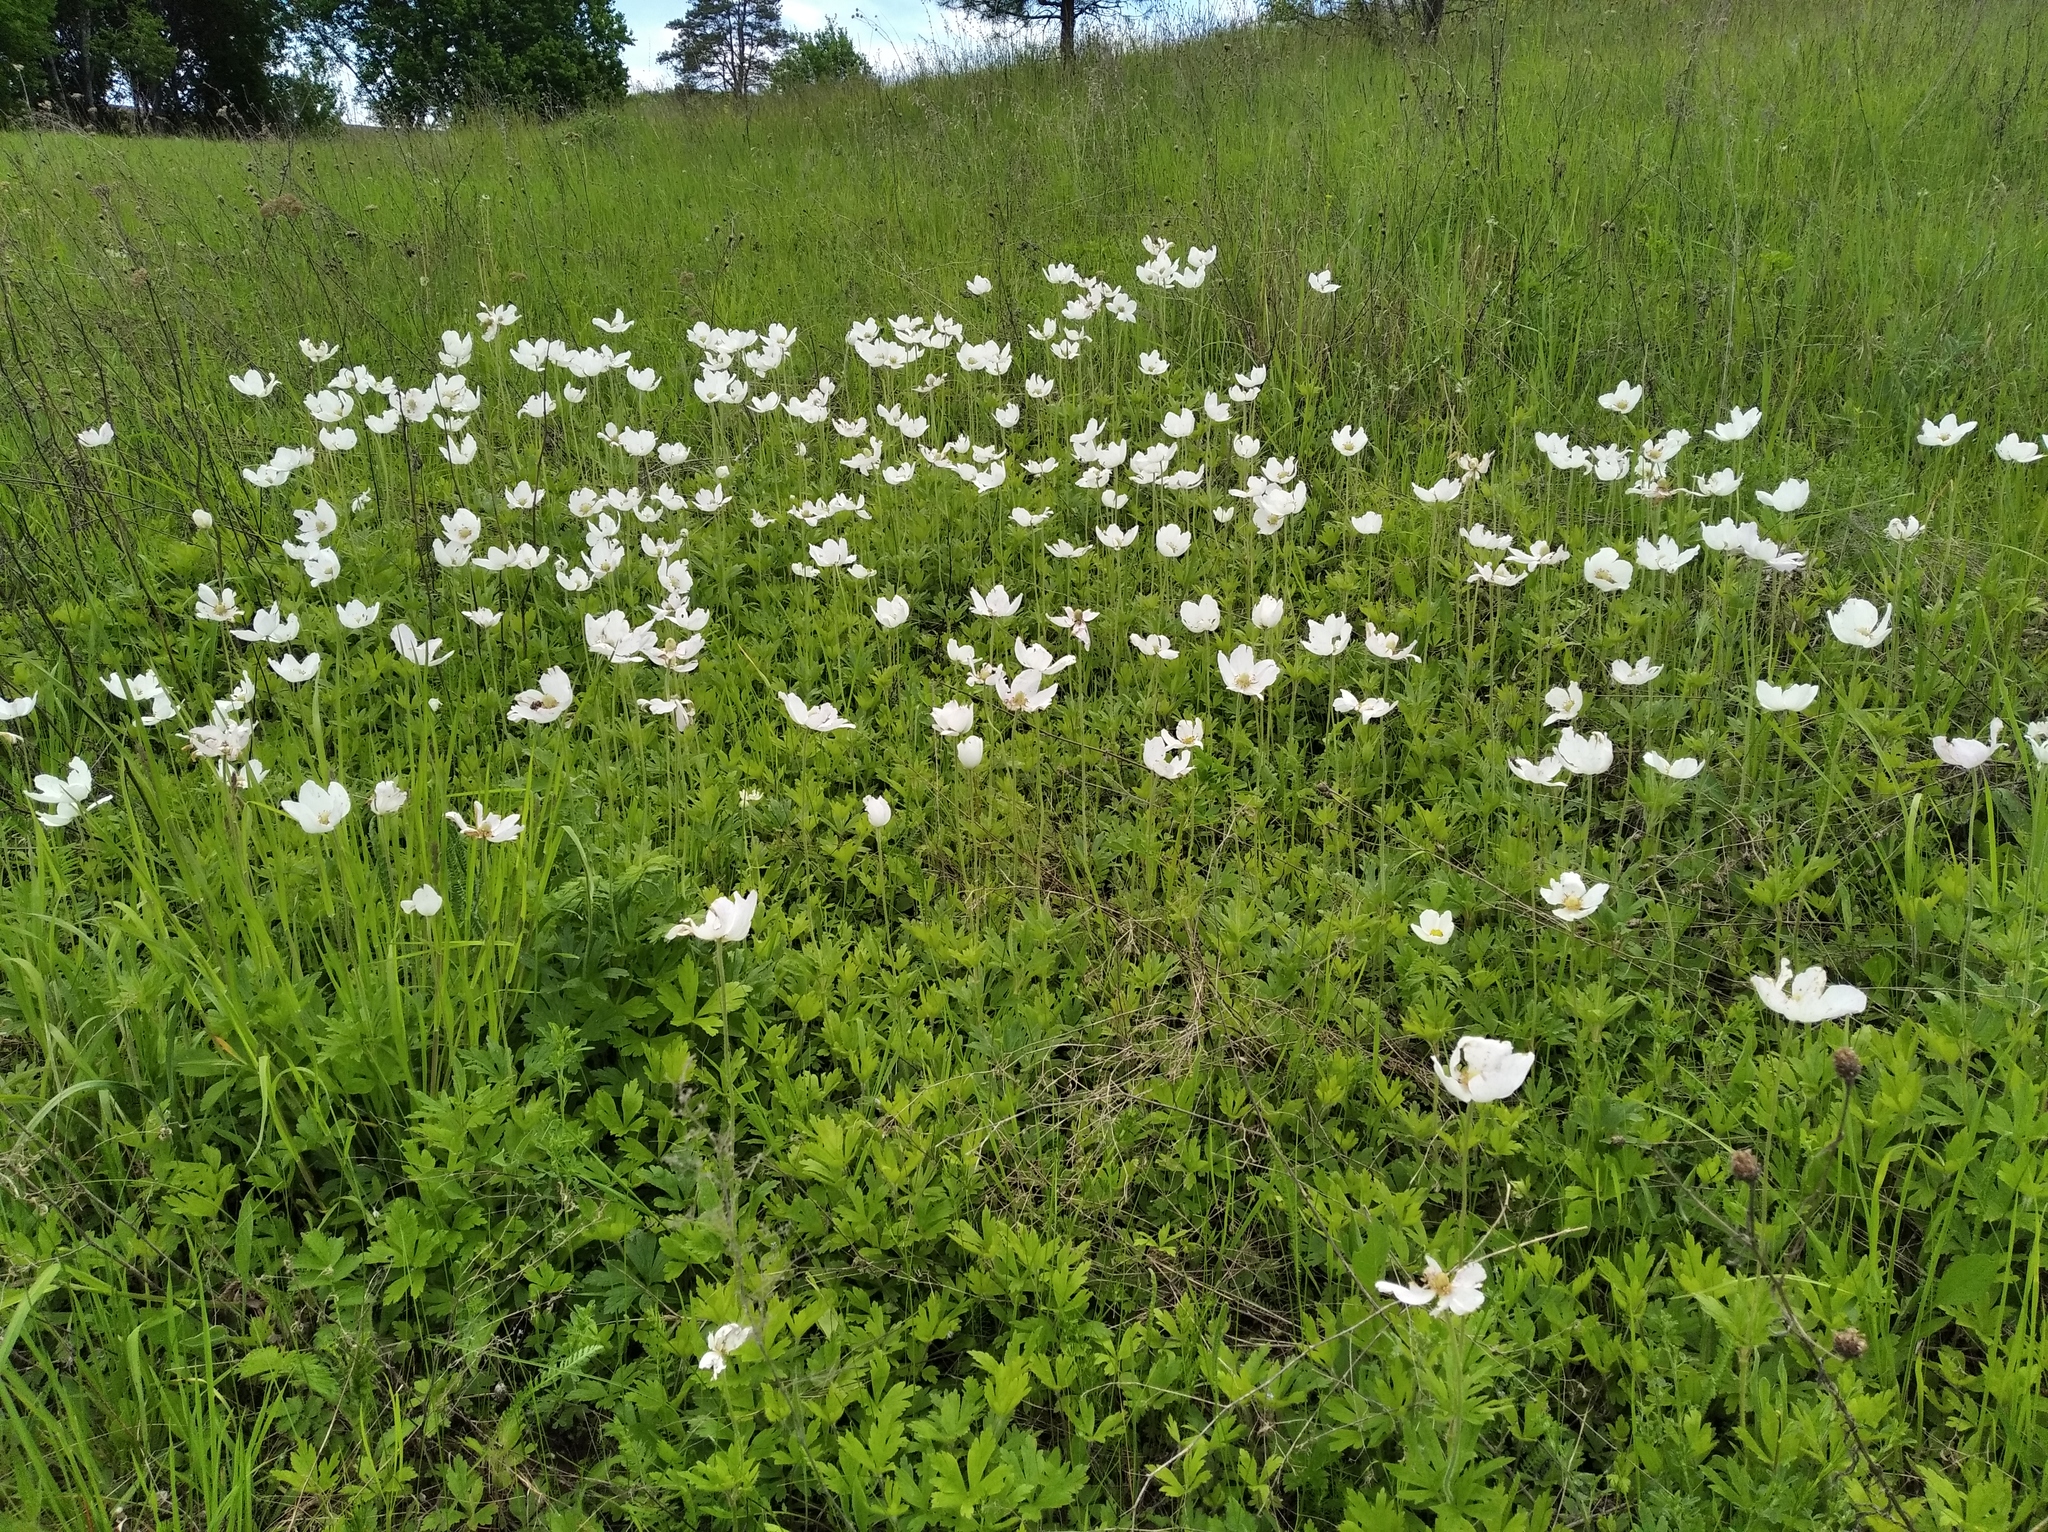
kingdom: Plantae
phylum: Tracheophyta
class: Magnoliopsida
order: Ranunculales
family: Ranunculaceae
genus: Anemone
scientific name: Anemone sylvestris
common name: Snowdrop anemone
